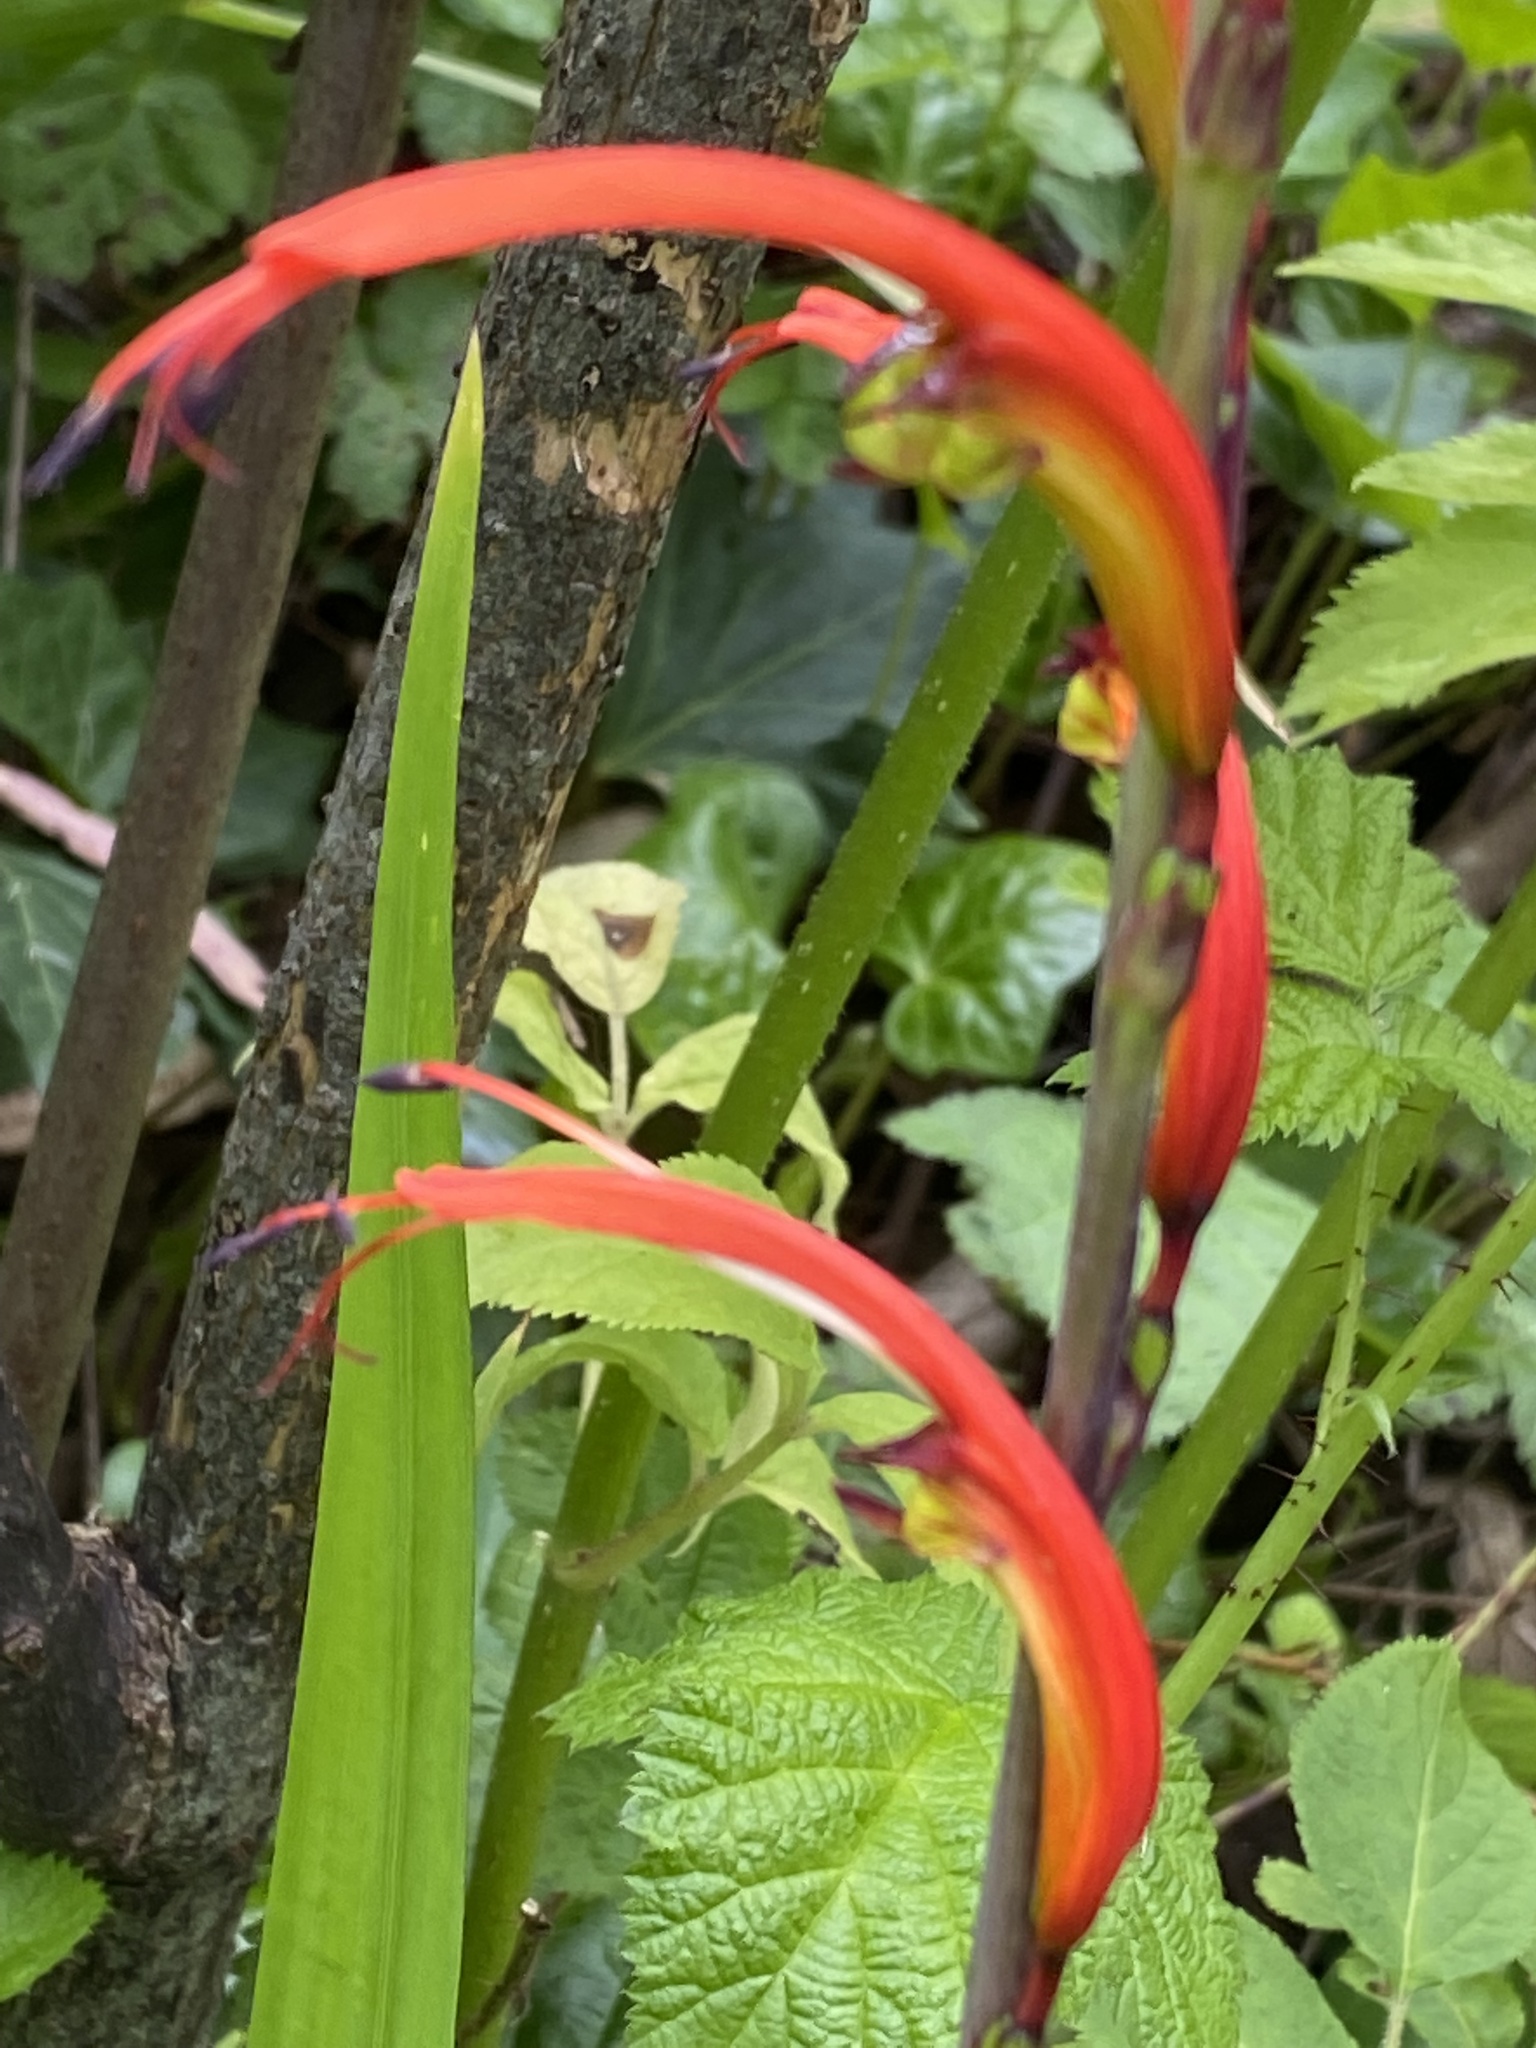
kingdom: Plantae
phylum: Tracheophyta
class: Liliopsida
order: Asparagales
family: Iridaceae
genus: Chasmanthe
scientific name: Chasmanthe bicolor
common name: Bicolor cobra lily
